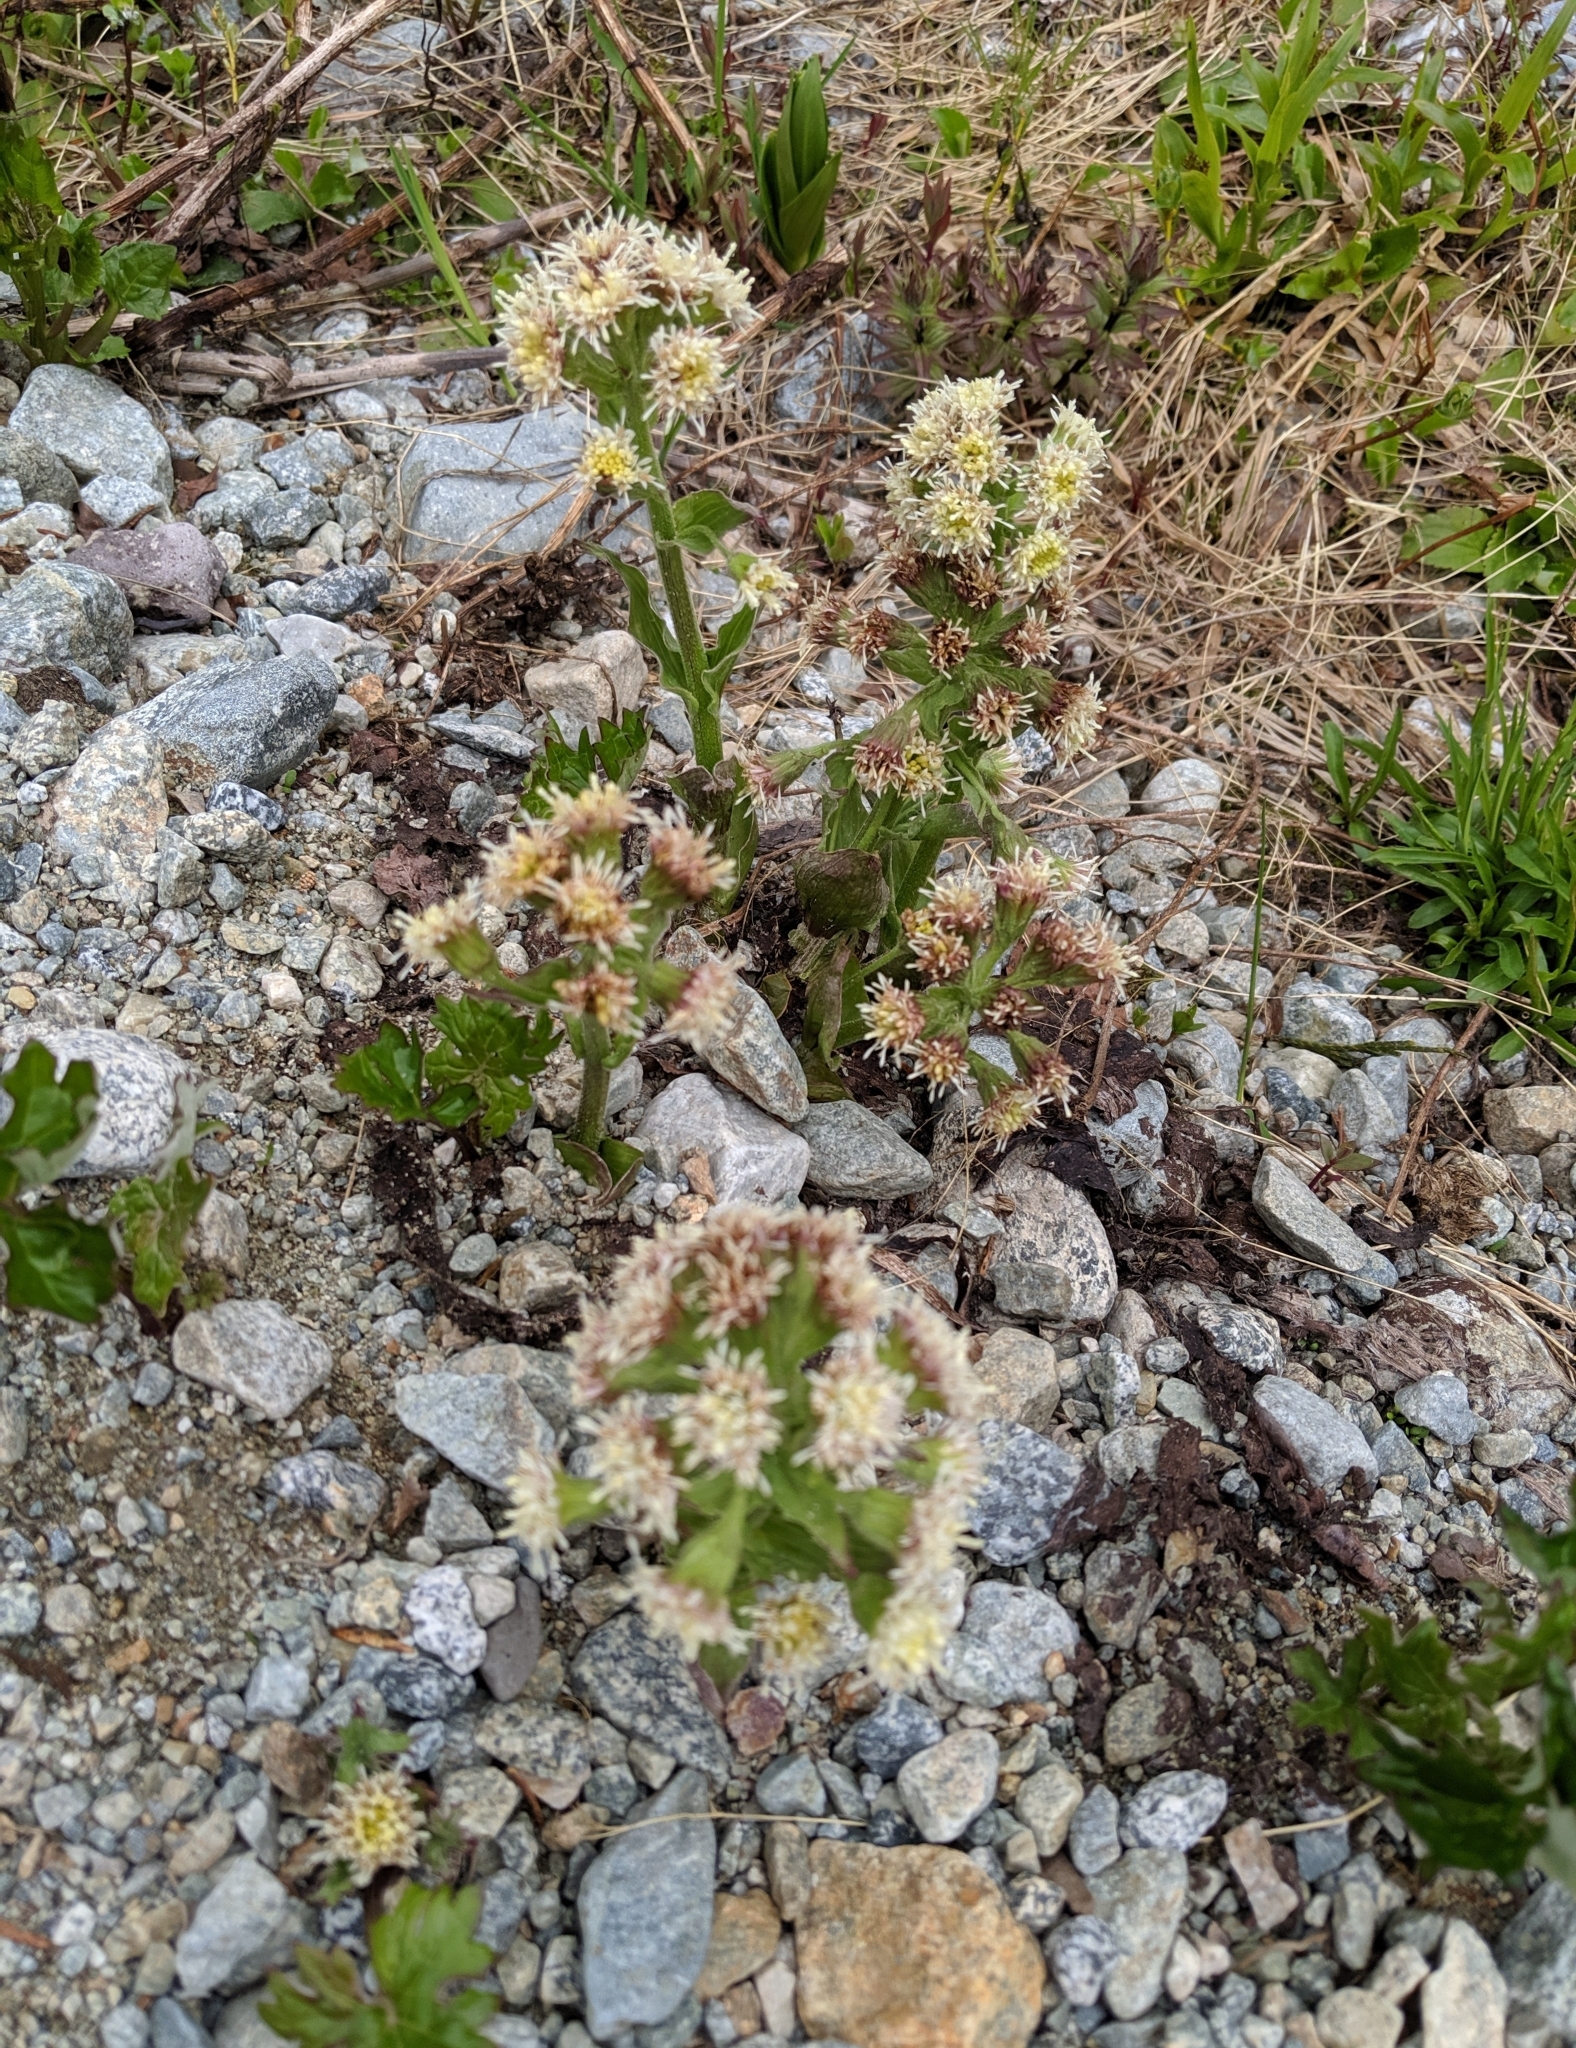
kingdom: Plantae
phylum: Tracheophyta
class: Magnoliopsida
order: Asterales
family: Asteraceae
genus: Petasites
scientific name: Petasites frigidus
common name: Arctic butterbur
